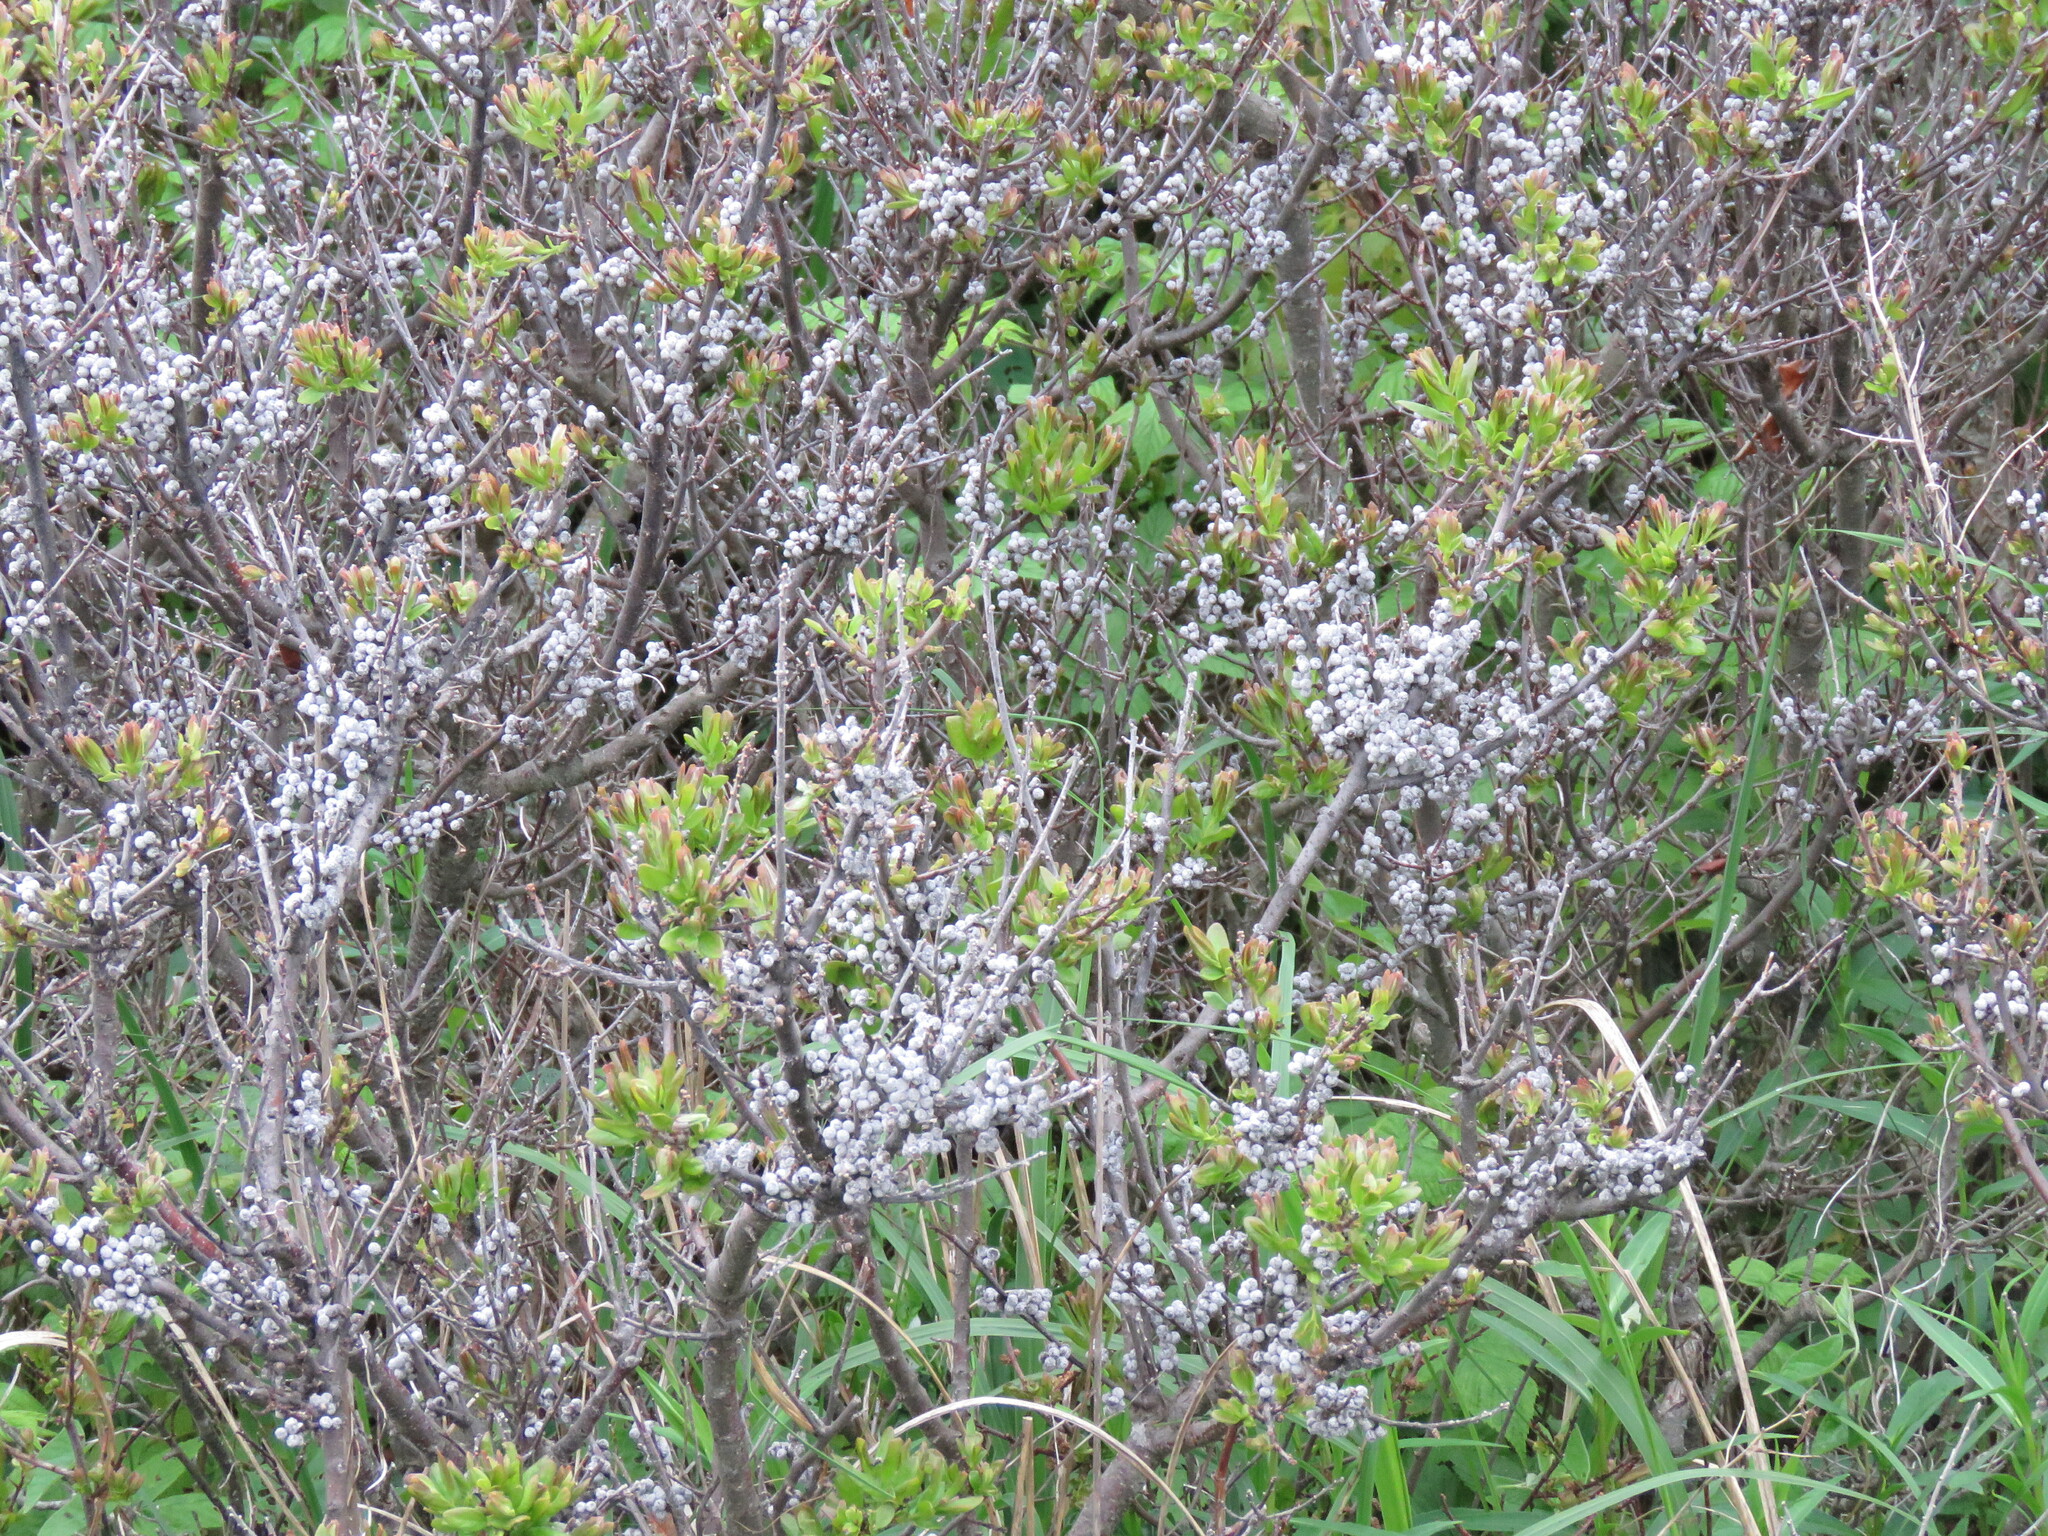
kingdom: Plantae
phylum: Tracheophyta
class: Magnoliopsida
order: Fagales
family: Myricaceae
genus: Morella
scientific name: Morella pensylvanica
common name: Northern bayberry
